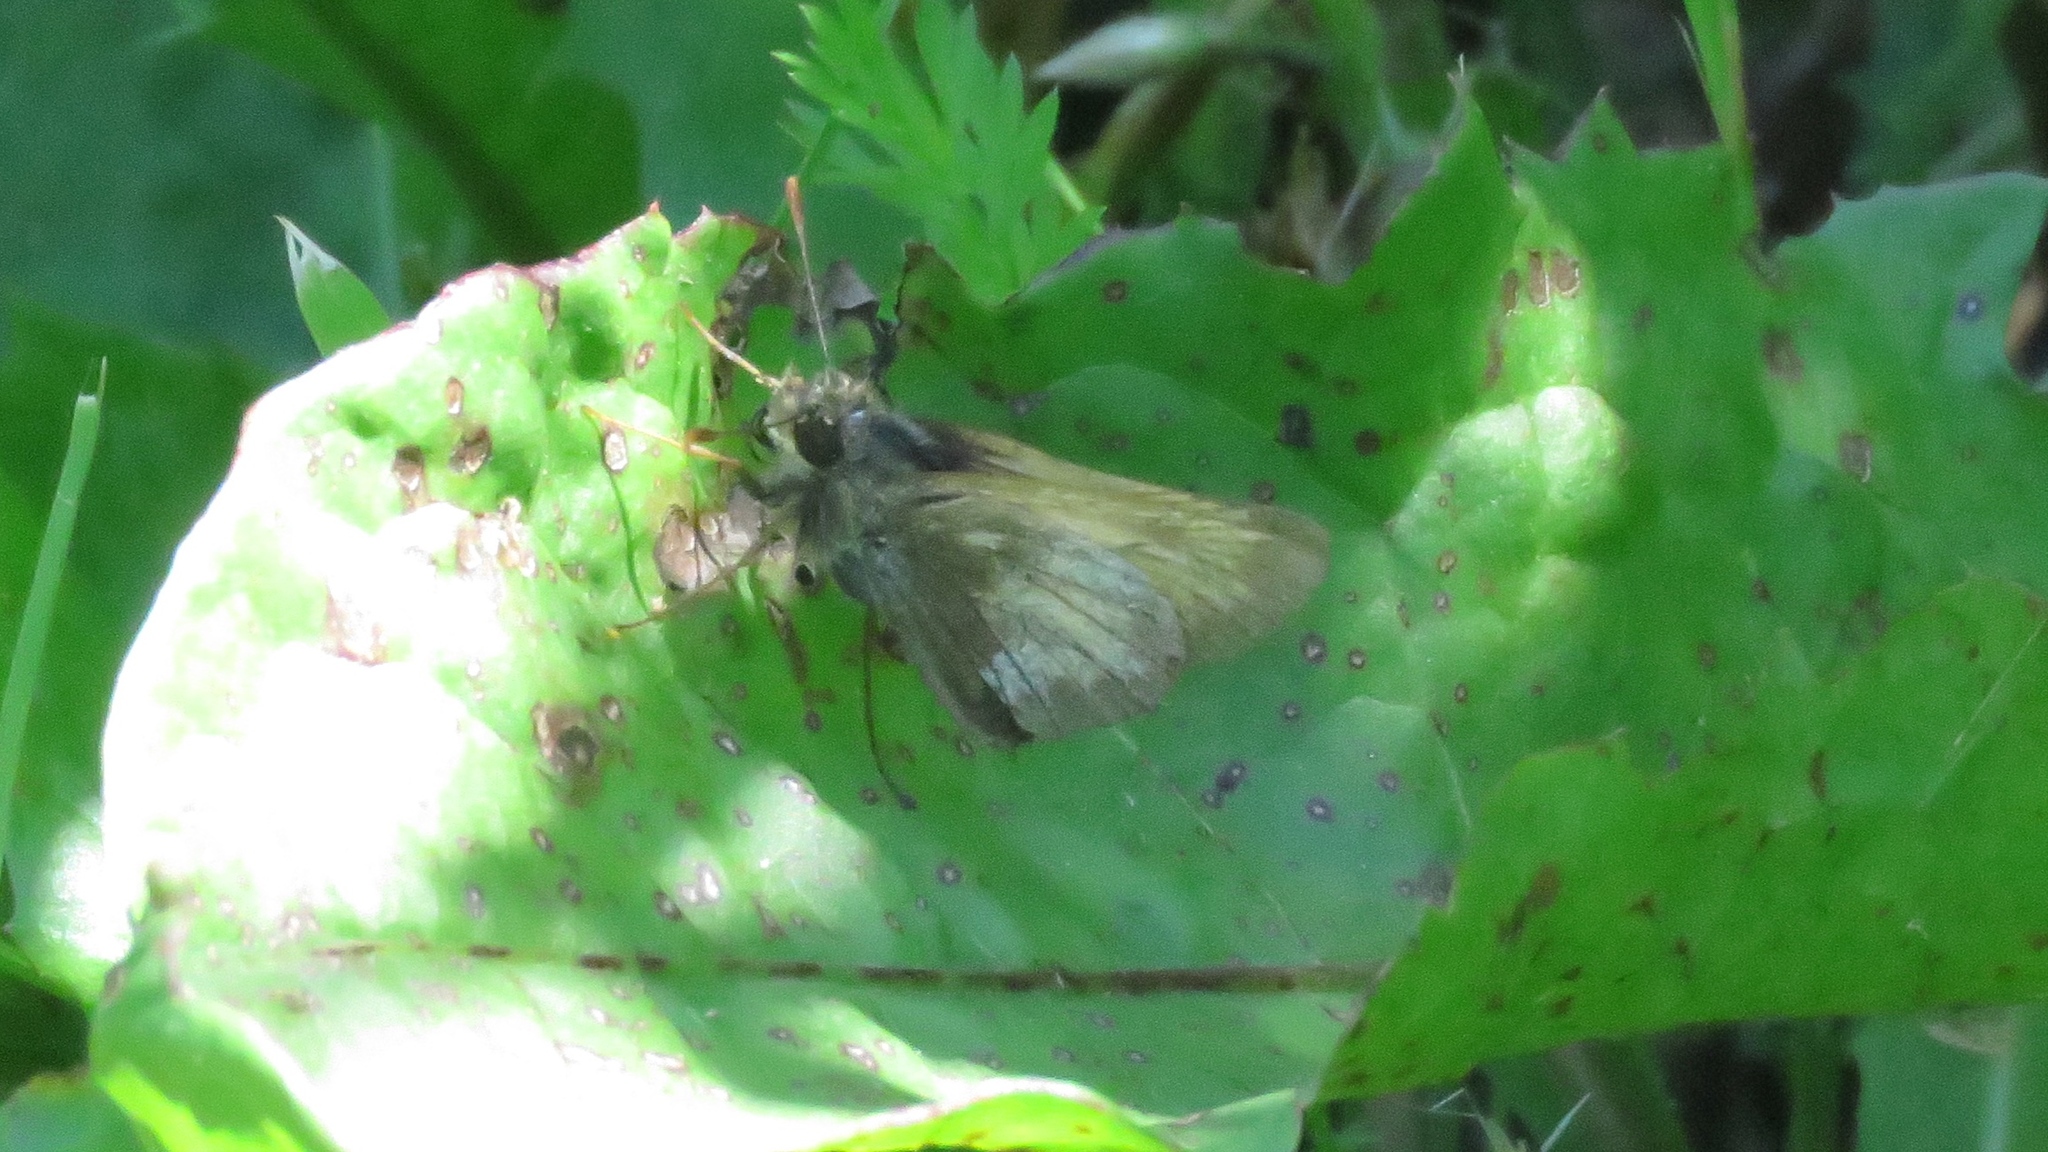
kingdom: Animalia
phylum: Arthropoda
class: Insecta
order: Lepidoptera
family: Hesperiidae
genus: Lon
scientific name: Lon hobomok
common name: Hobomok skipper
